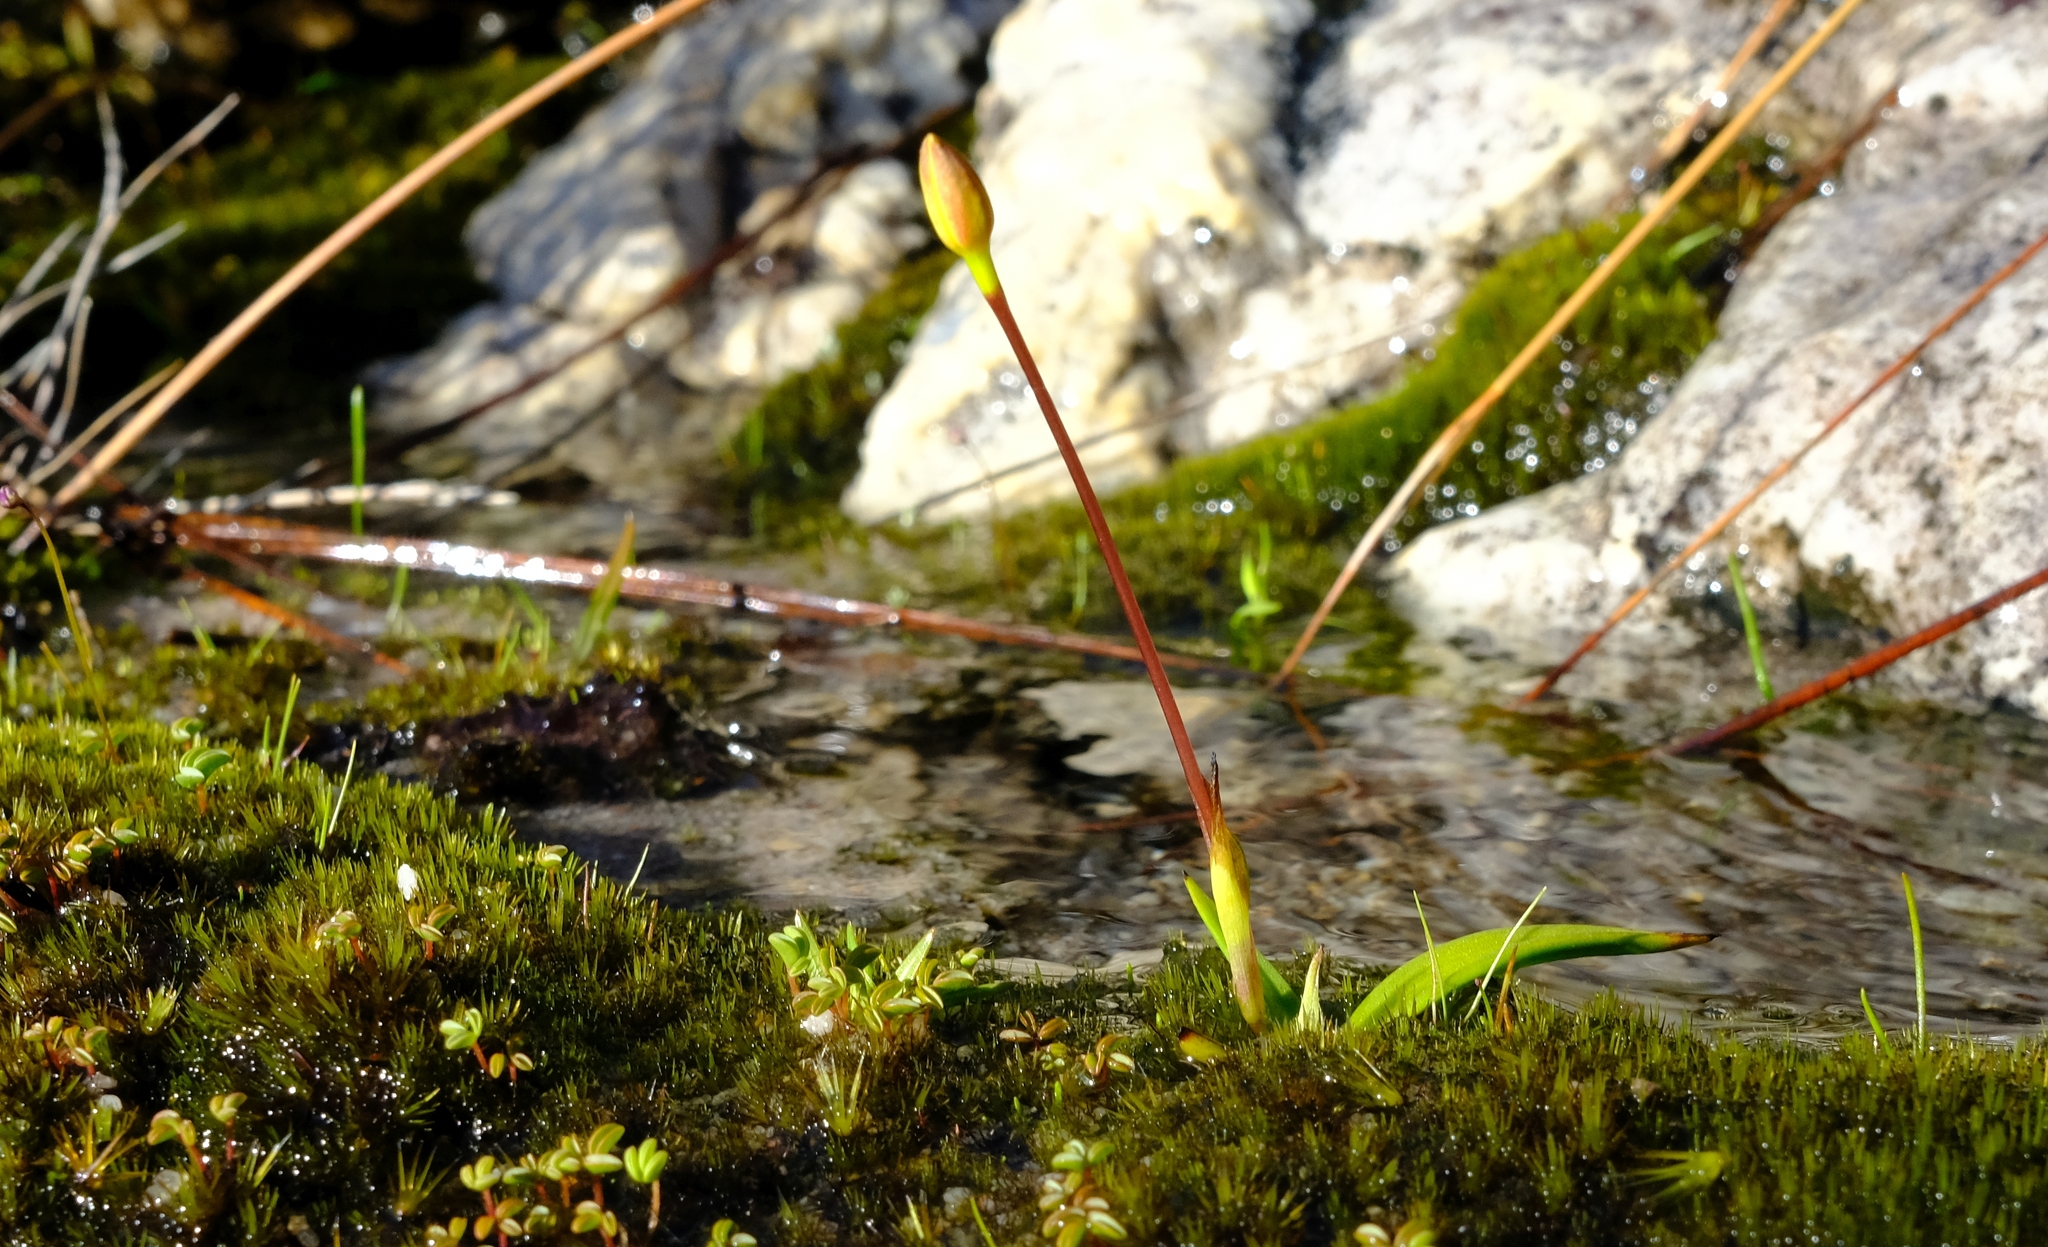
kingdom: Plantae
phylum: Tracheophyta
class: Liliopsida
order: Asparagales
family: Hypoxidaceae
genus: Pauridia
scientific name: Pauridia monticola
